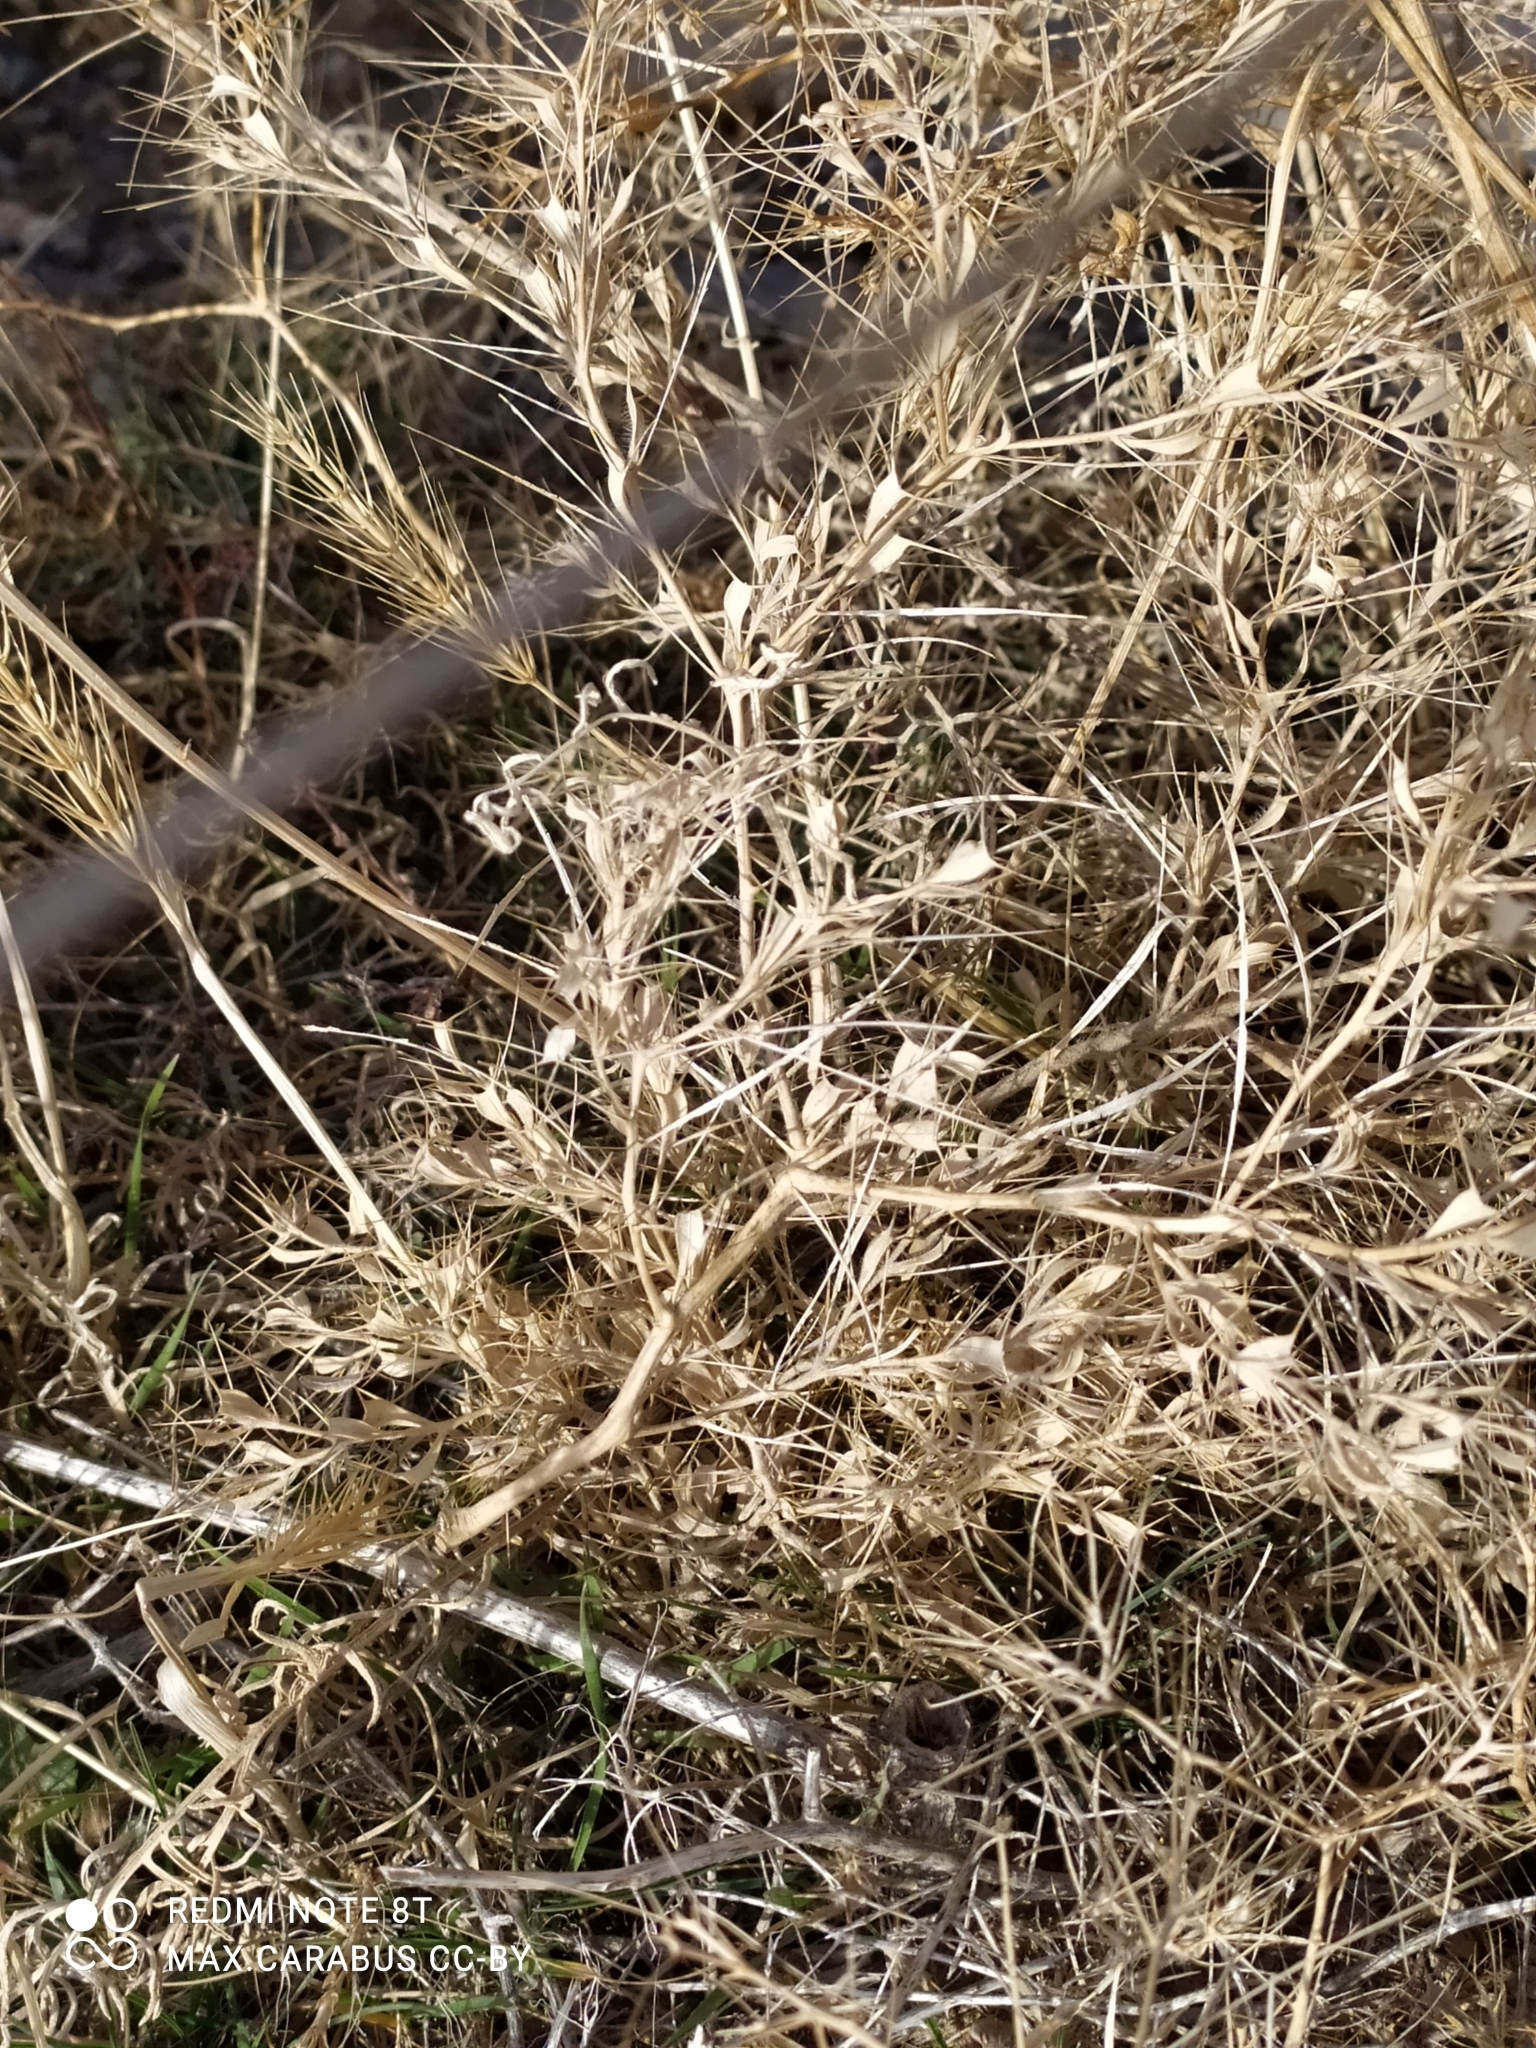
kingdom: Plantae
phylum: Tracheophyta
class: Magnoliopsida
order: Caryophyllales
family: Amaranthaceae
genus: Ceratocarpus
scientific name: Ceratocarpus arenarius
